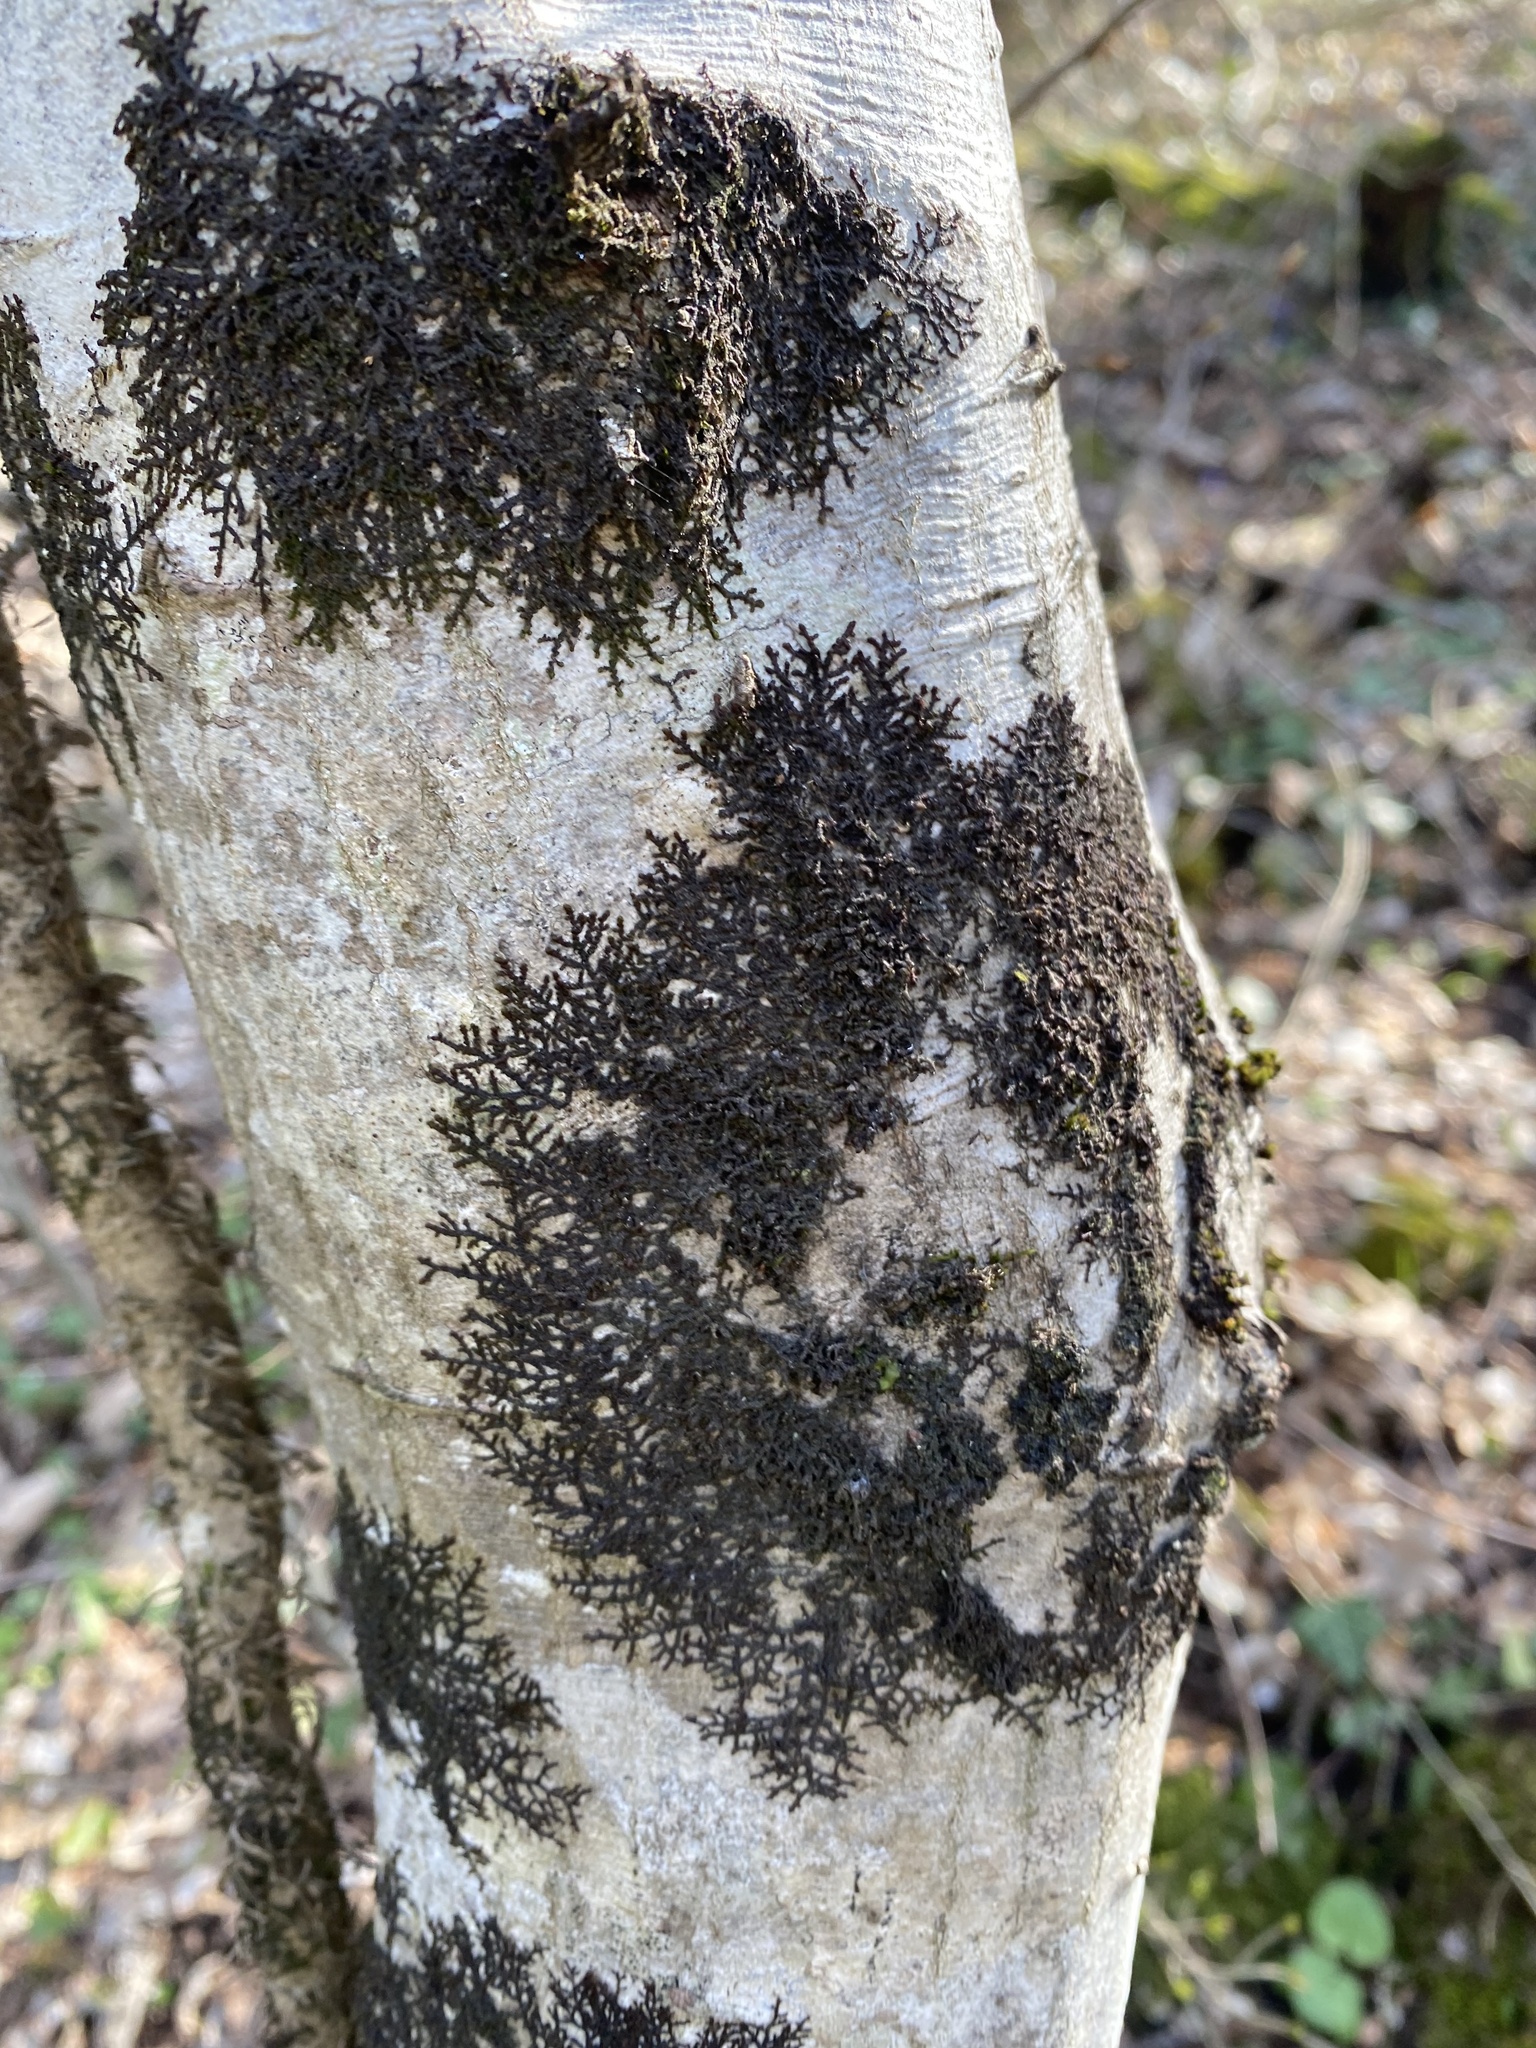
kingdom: Plantae
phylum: Marchantiophyta
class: Jungermanniopsida
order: Porellales
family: Frullaniaceae
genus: Frullania
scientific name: Frullania dilatata
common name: Dilated scalewort
